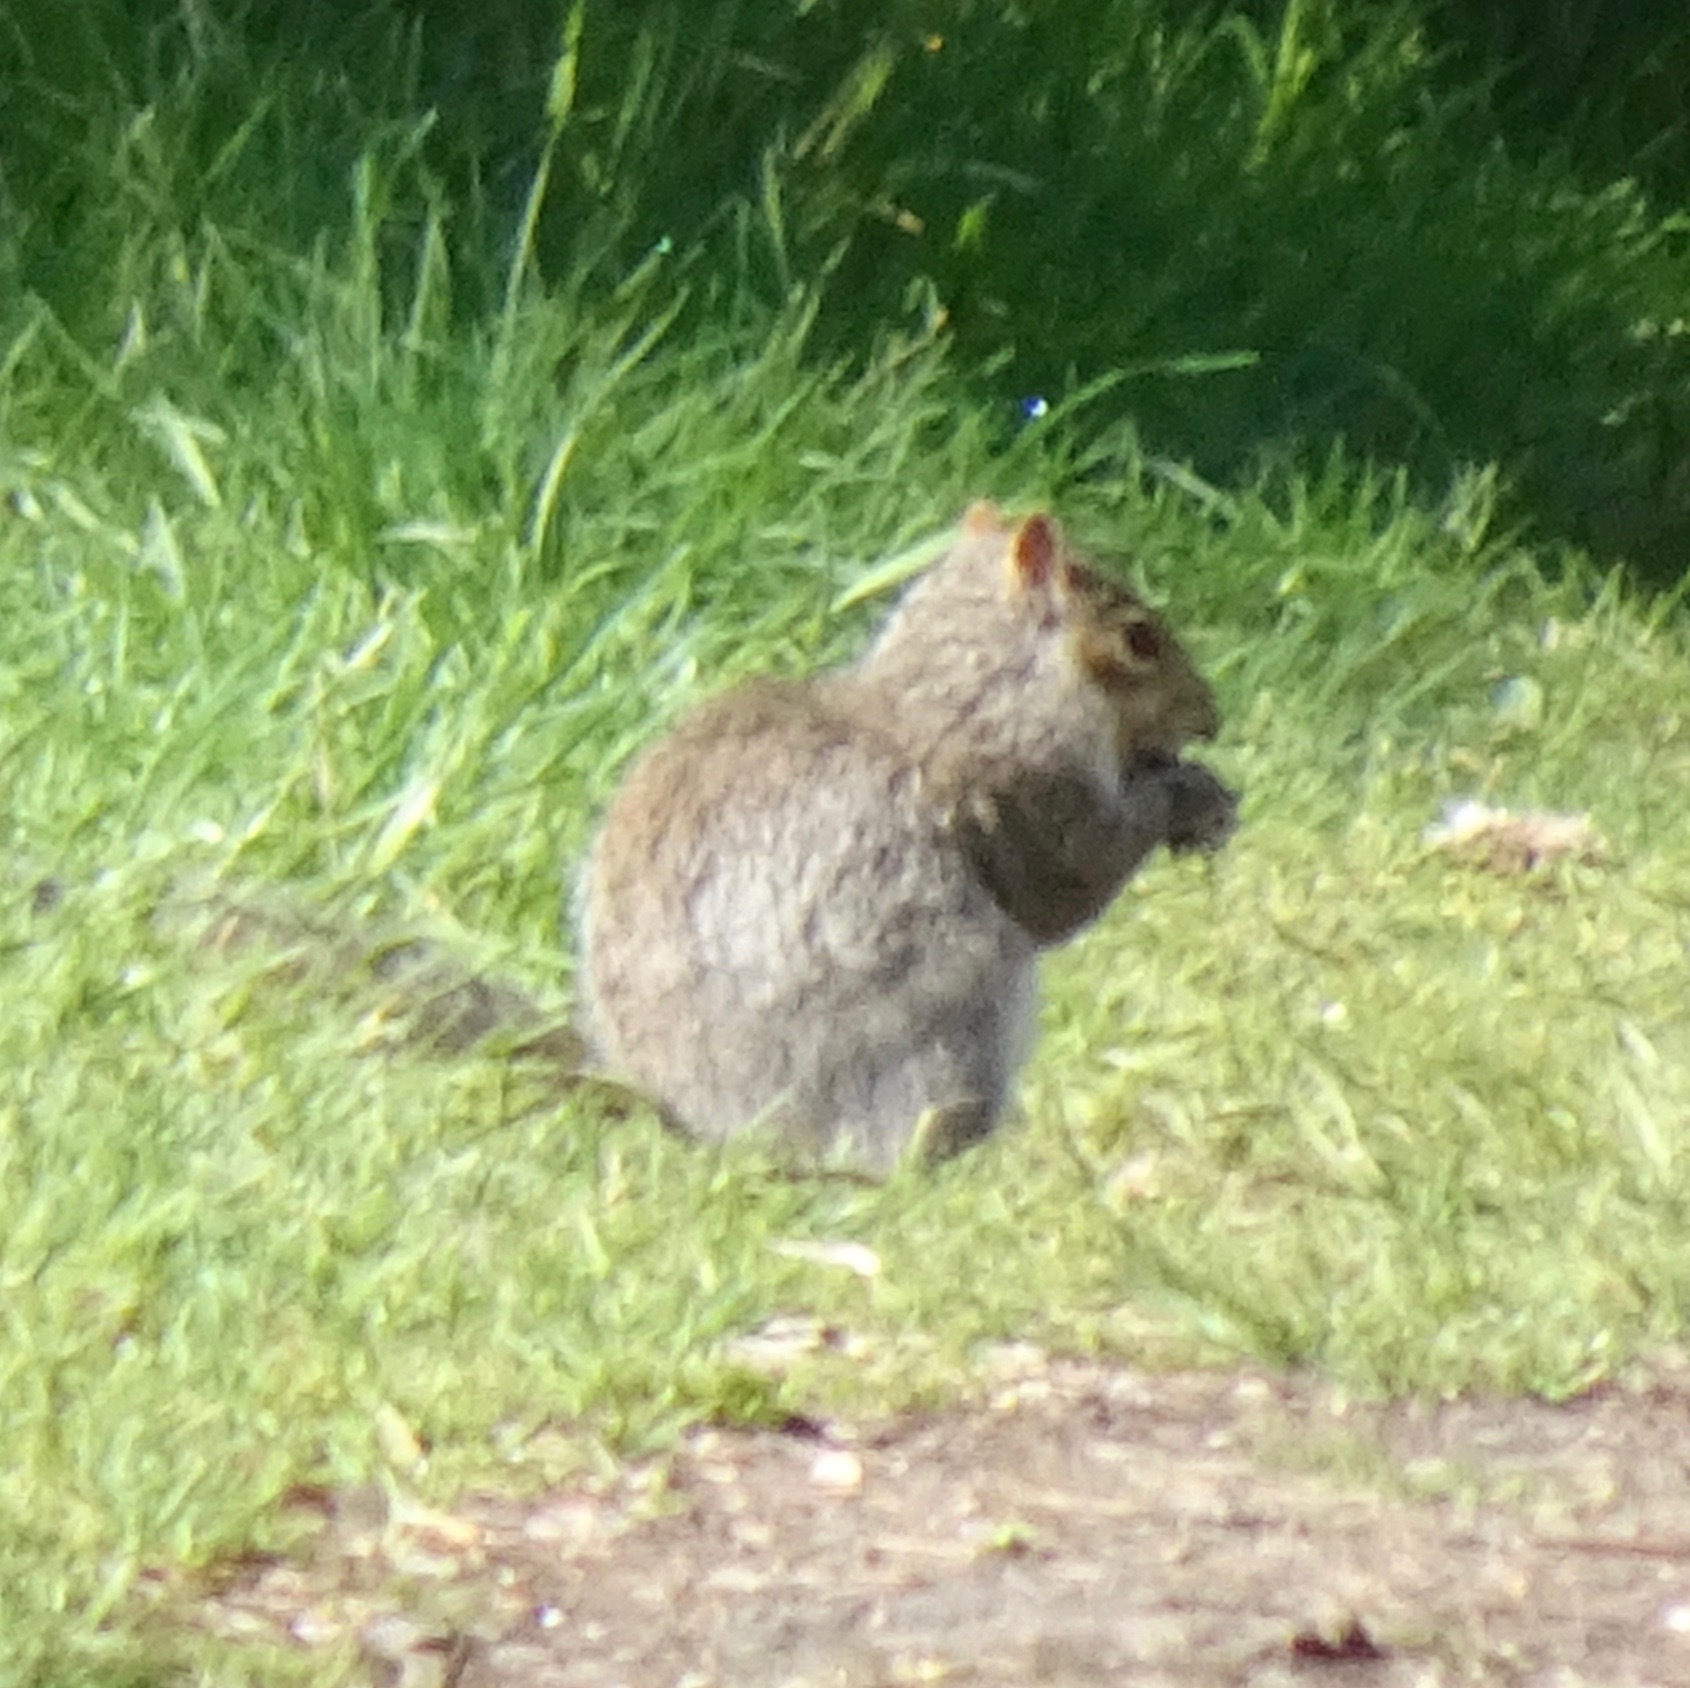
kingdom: Animalia
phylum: Chordata
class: Mammalia
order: Rodentia
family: Sciuridae
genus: Sciurus
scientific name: Sciurus carolinensis
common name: Eastern gray squirrel
